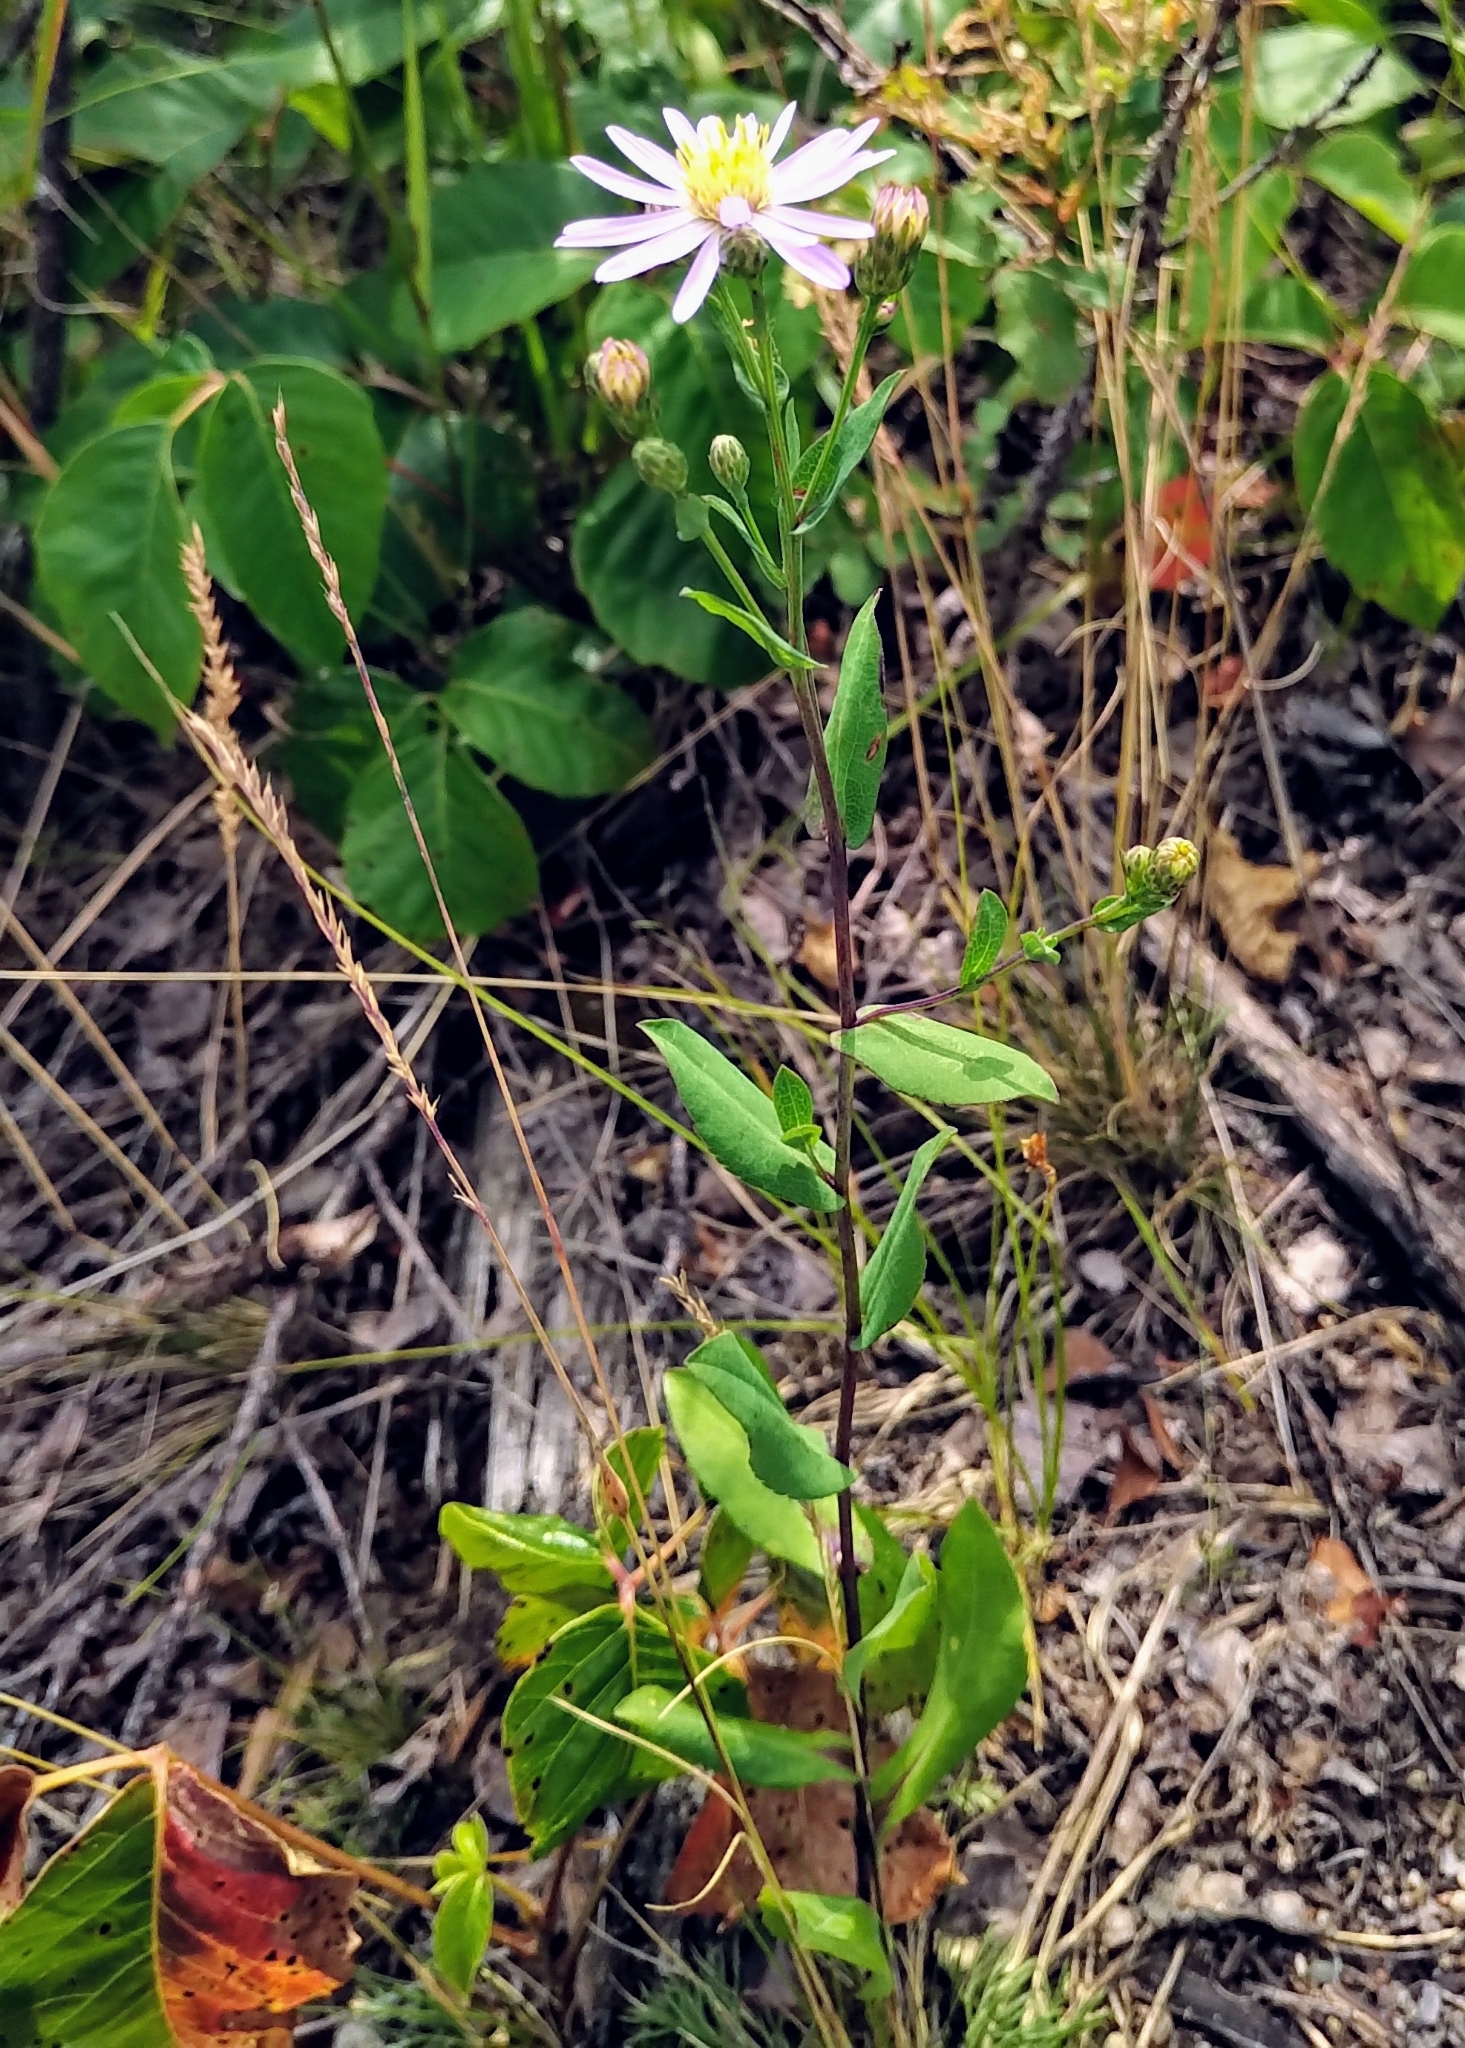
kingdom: Plantae
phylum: Tracheophyta
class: Magnoliopsida
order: Asterales
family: Asteraceae
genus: Symphyotrichum
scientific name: Symphyotrichum laeve
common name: Glaucous aster
